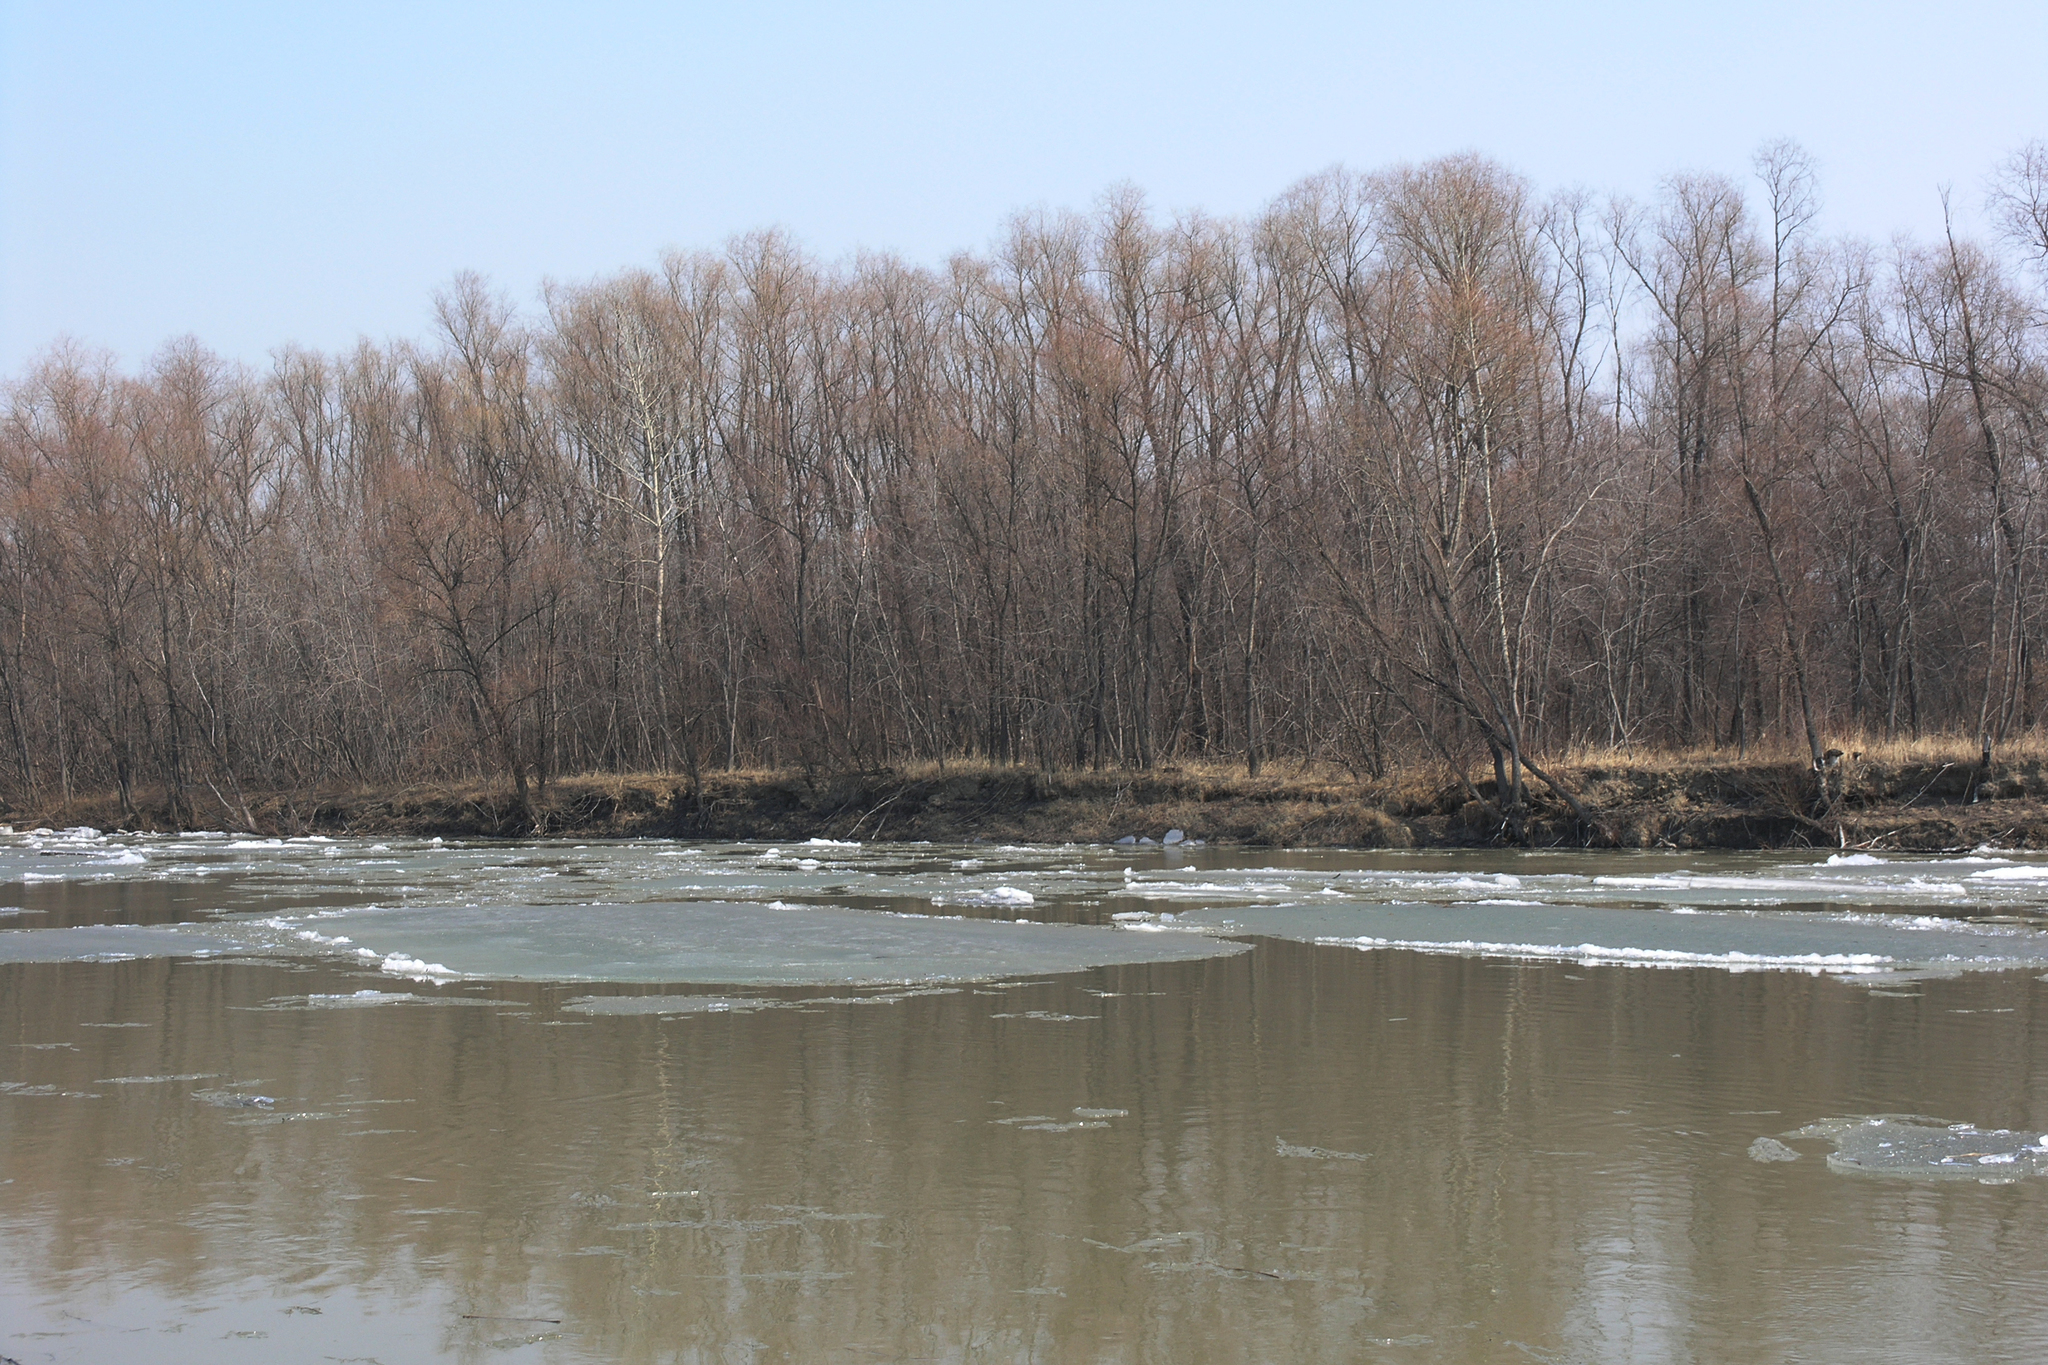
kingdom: Plantae
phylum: Tracheophyta
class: Magnoliopsida
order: Malpighiales
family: Salicaceae
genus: Salix
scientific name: Salix alba
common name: White willow
